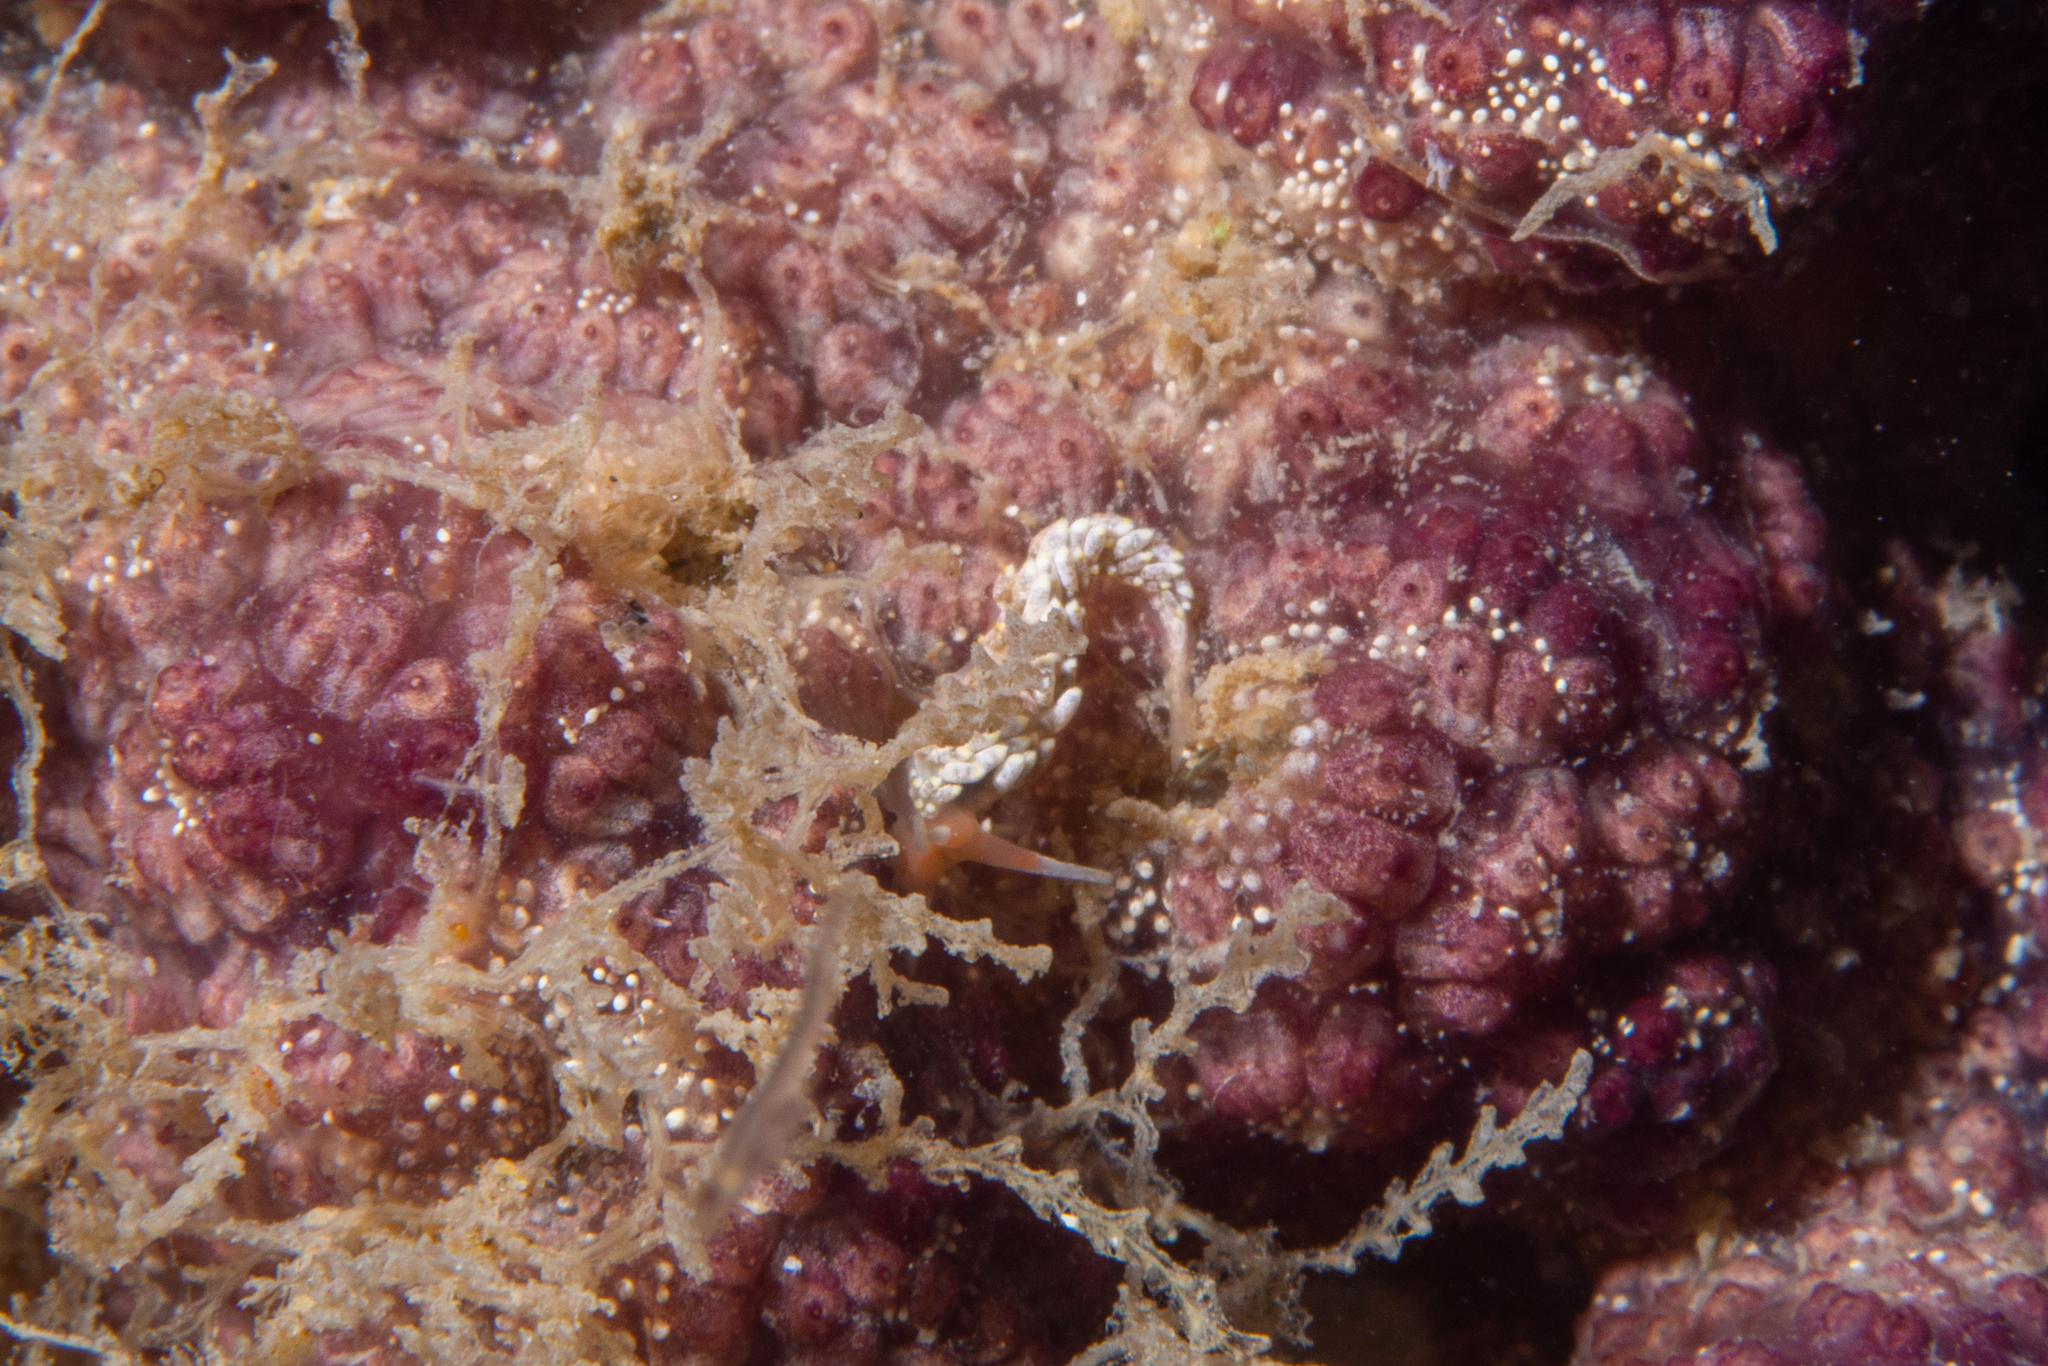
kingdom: Animalia
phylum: Mollusca
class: Gastropoda
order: Nudibranchia
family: Trinchesiidae
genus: Trinchesia
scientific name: Trinchesia catachroma
